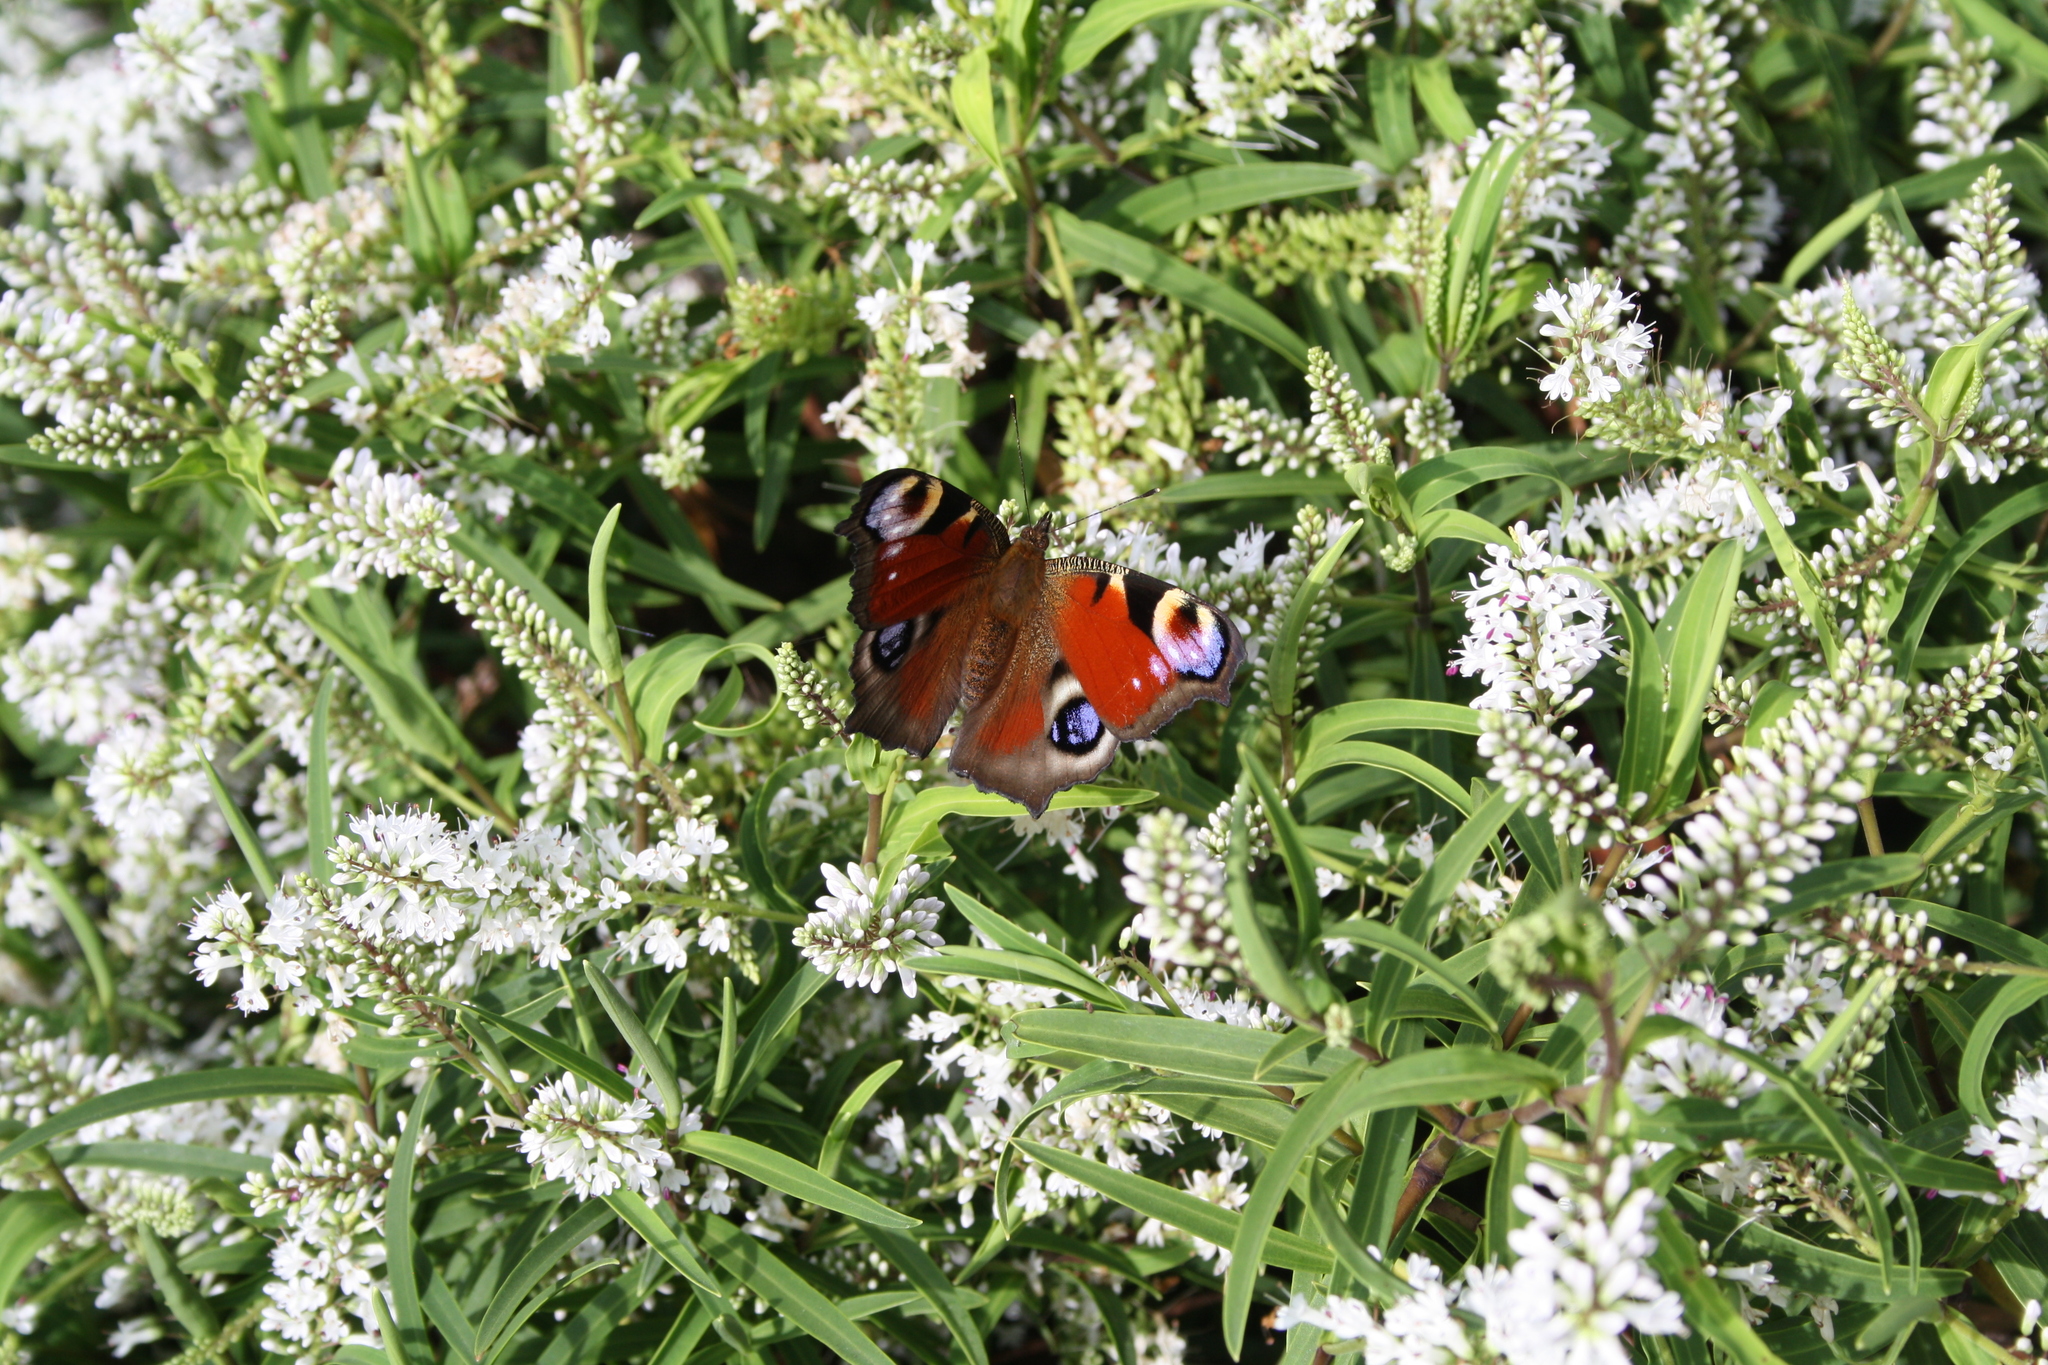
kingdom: Animalia
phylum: Arthropoda
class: Insecta
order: Lepidoptera
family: Nymphalidae
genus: Aglais
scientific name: Aglais io
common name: Peacock
